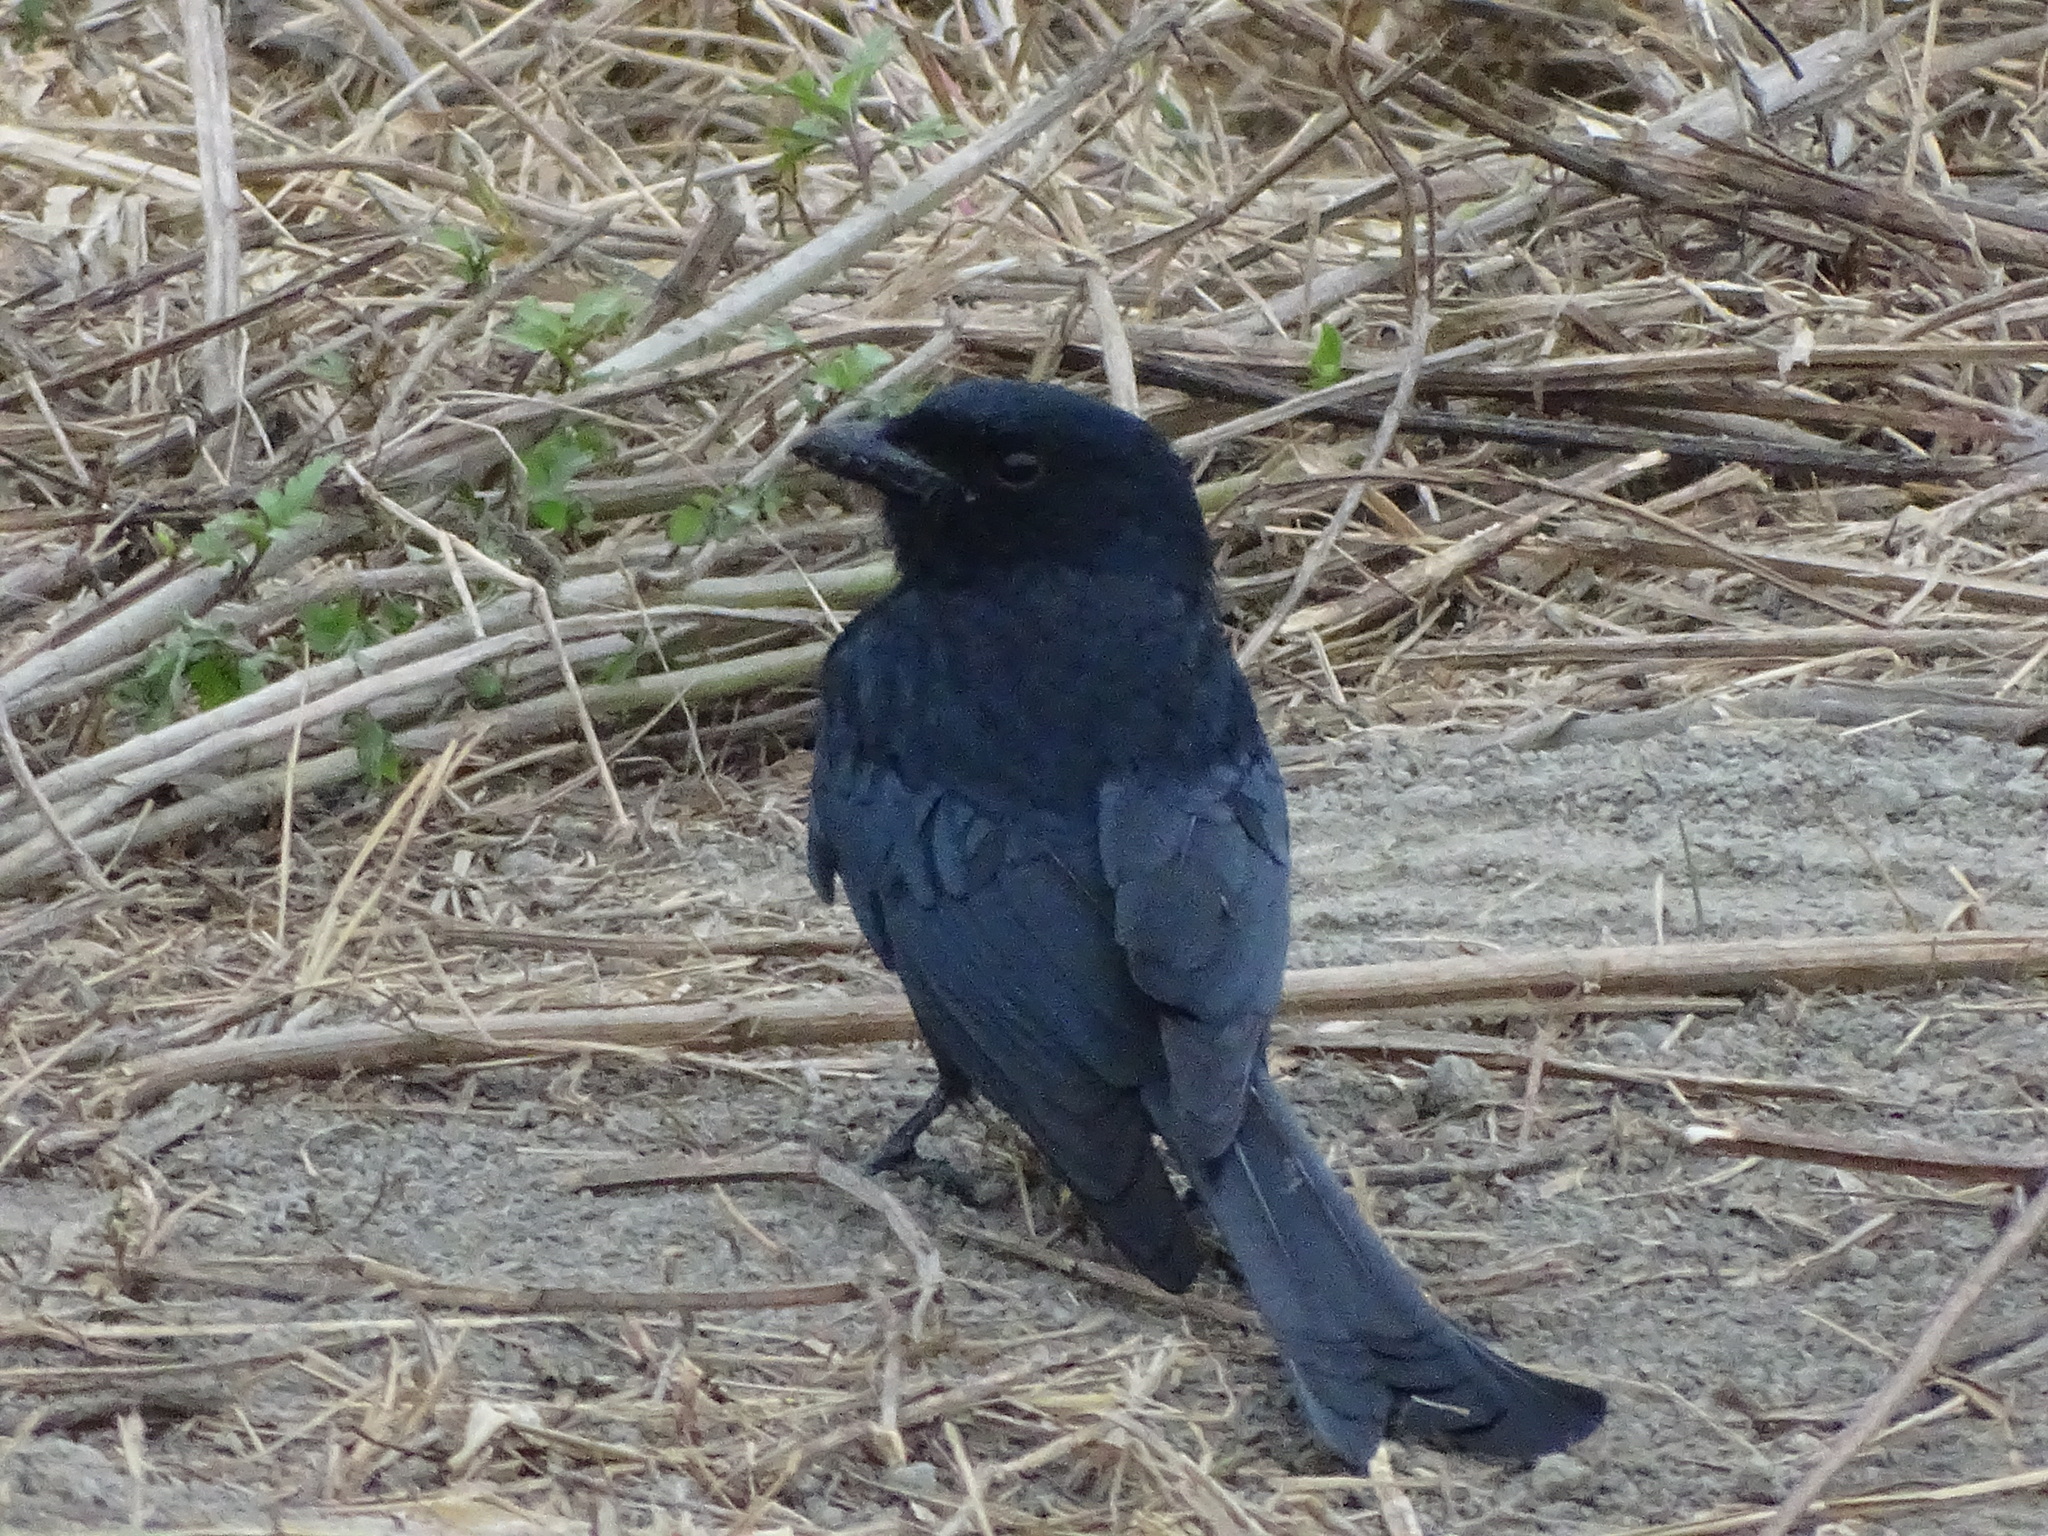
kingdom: Animalia
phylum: Chordata
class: Aves
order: Passeriformes
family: Dicruridae
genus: Dicrurus
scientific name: Dicrurus macrocercus
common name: Black drongo
